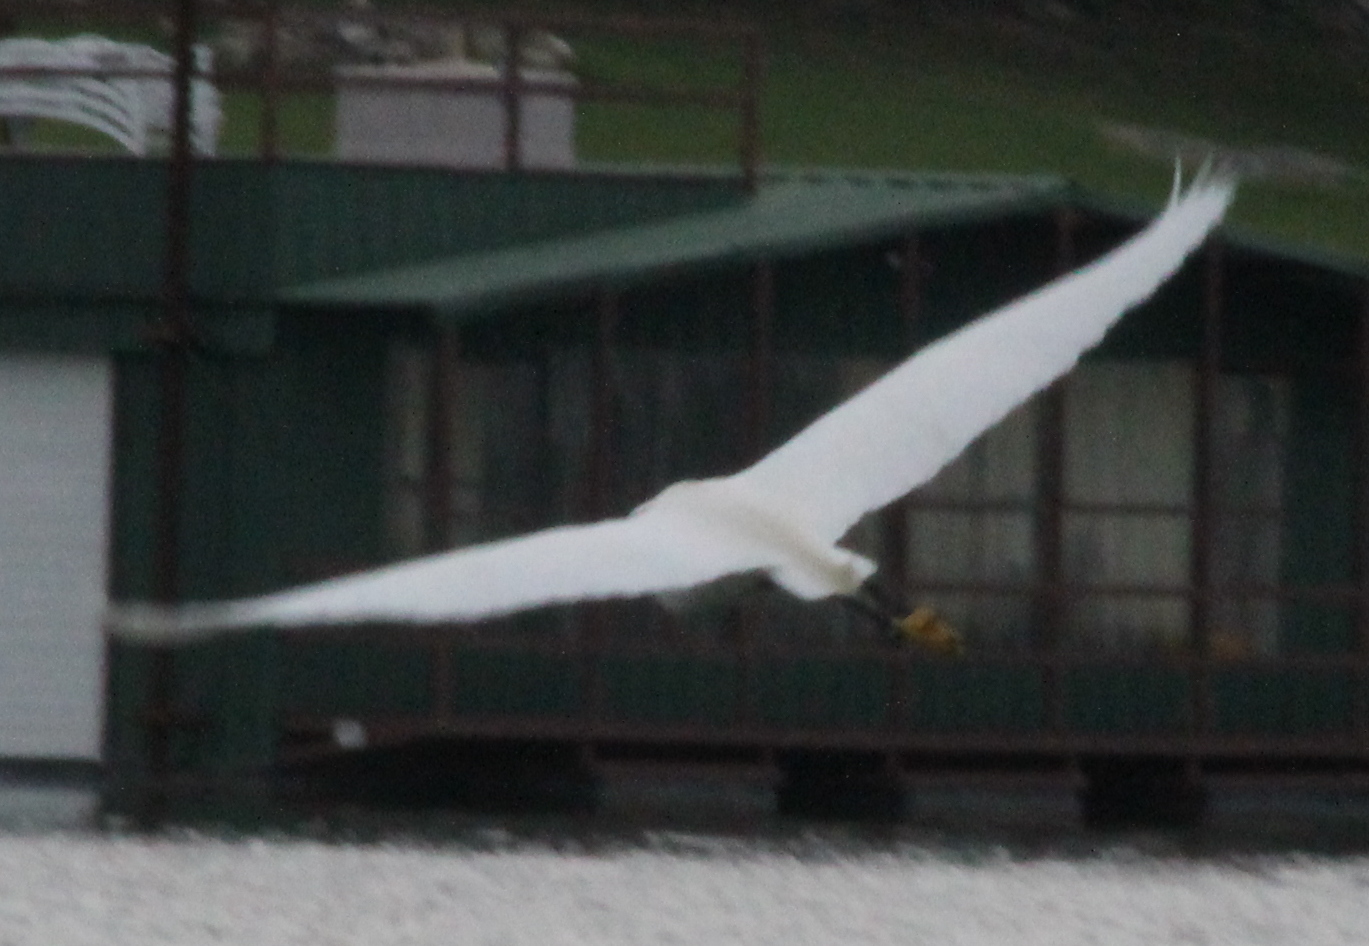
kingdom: Animalia
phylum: Chordata
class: Aves
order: Pelecaniformes
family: Ardeidae
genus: Egretta
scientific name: Egretta thula
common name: Snowy egret
